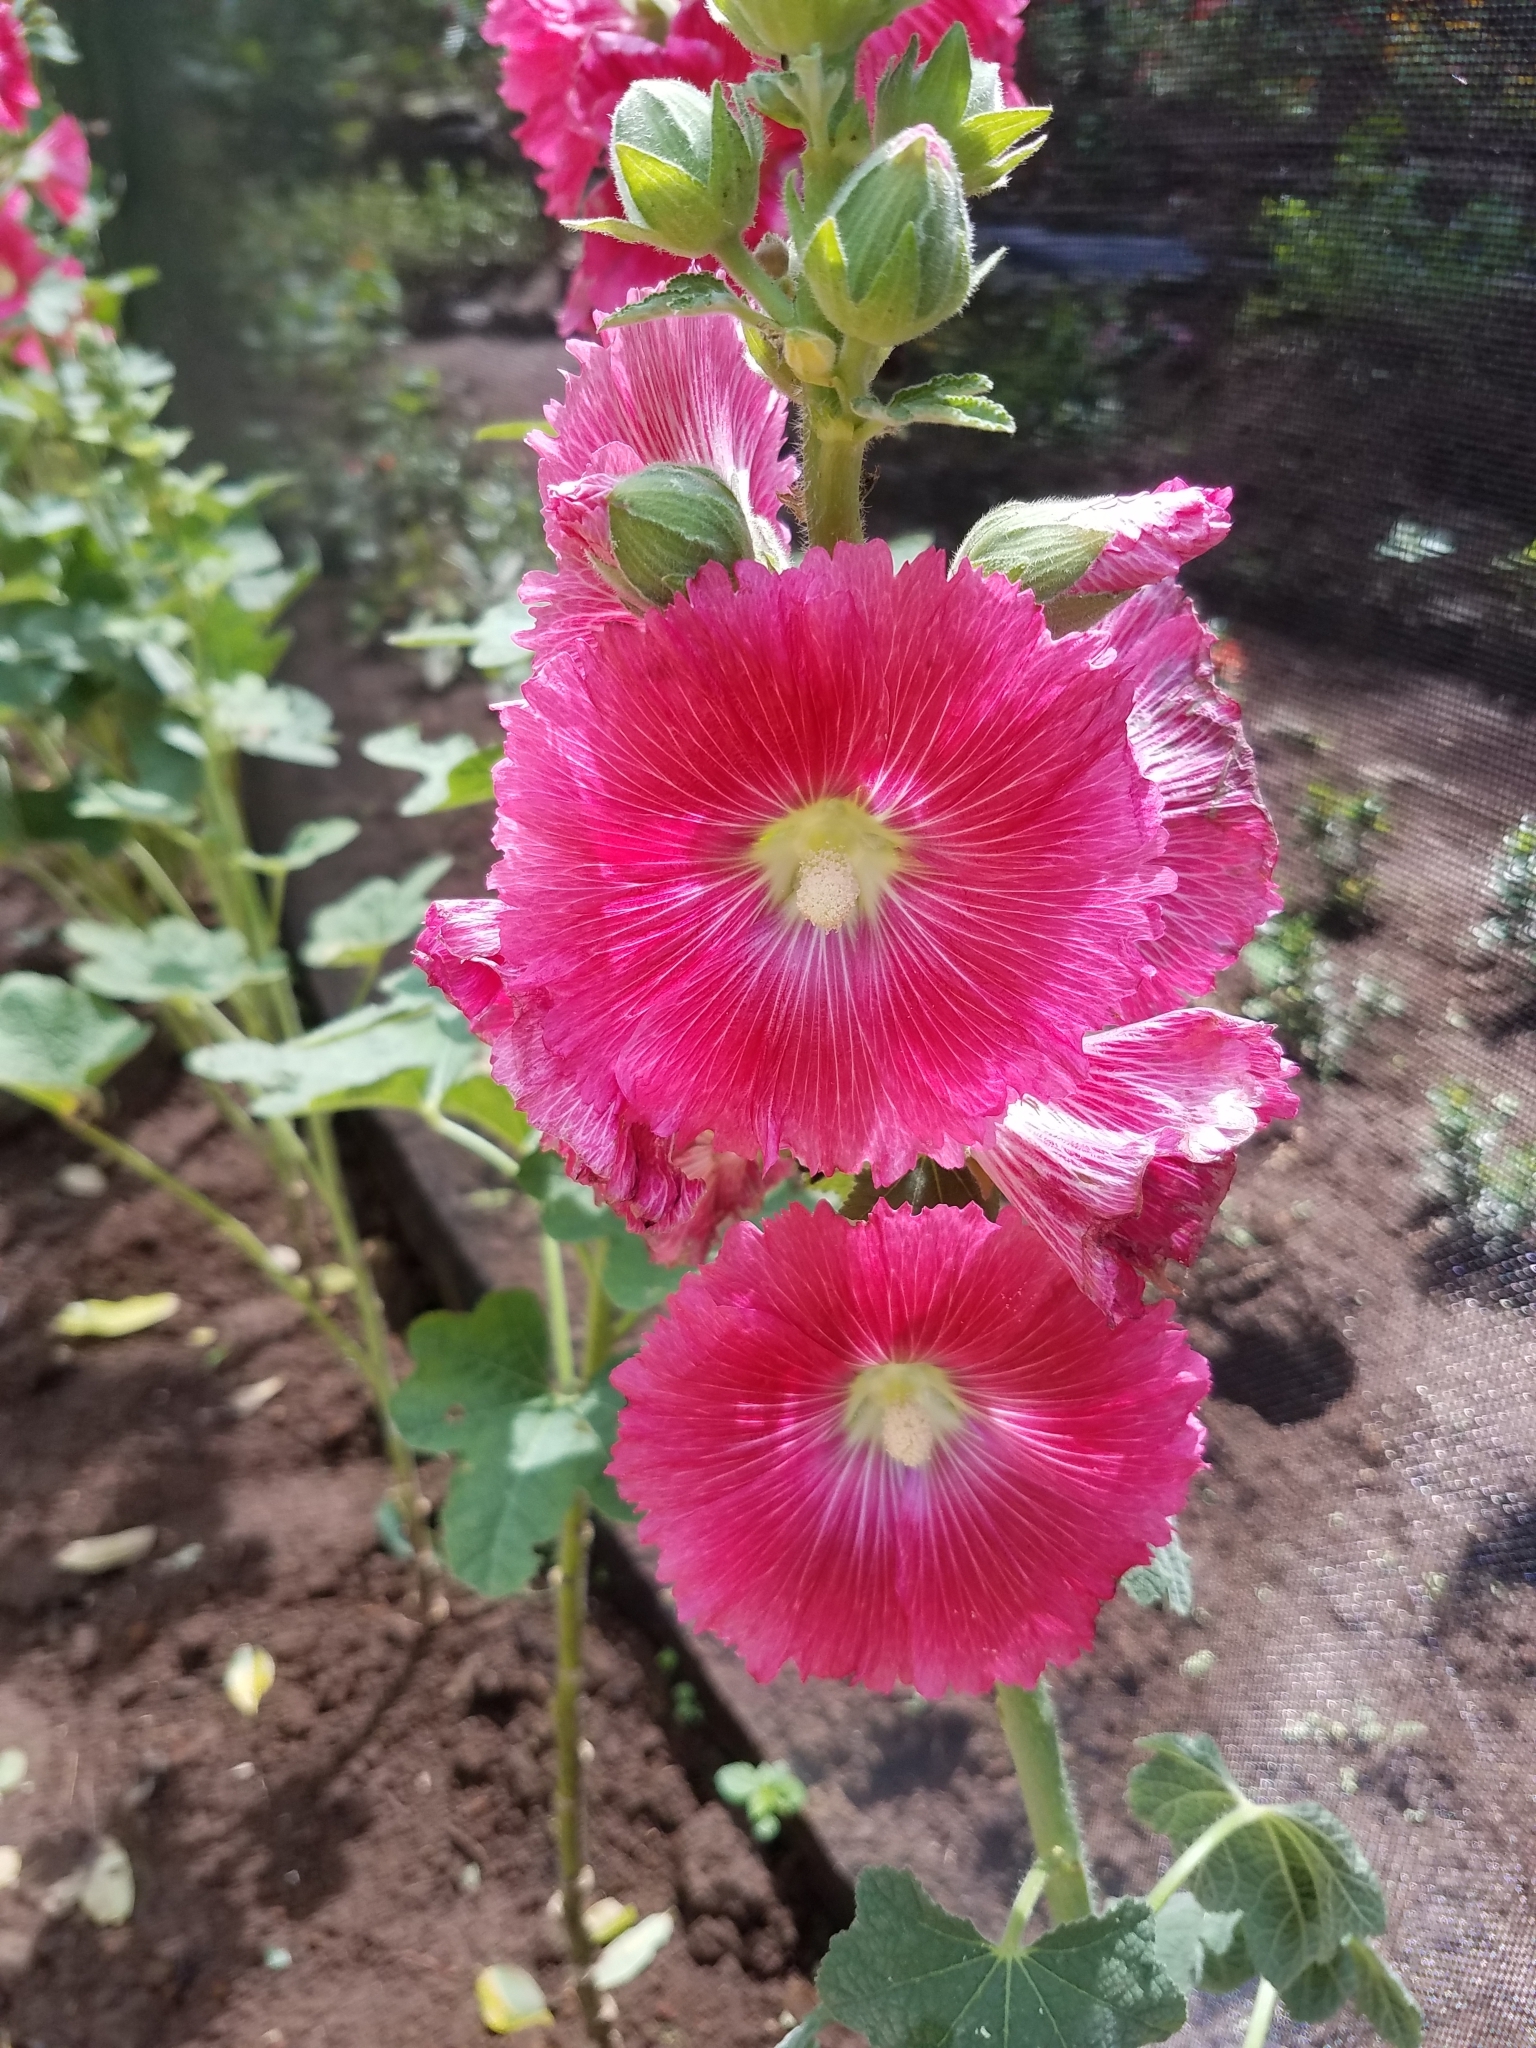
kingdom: Plantae
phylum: Tracheophyta
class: Magnoliopsida
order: Malvales
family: Malvaceae
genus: Alcea
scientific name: Alcea rosea
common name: Hollyhock
